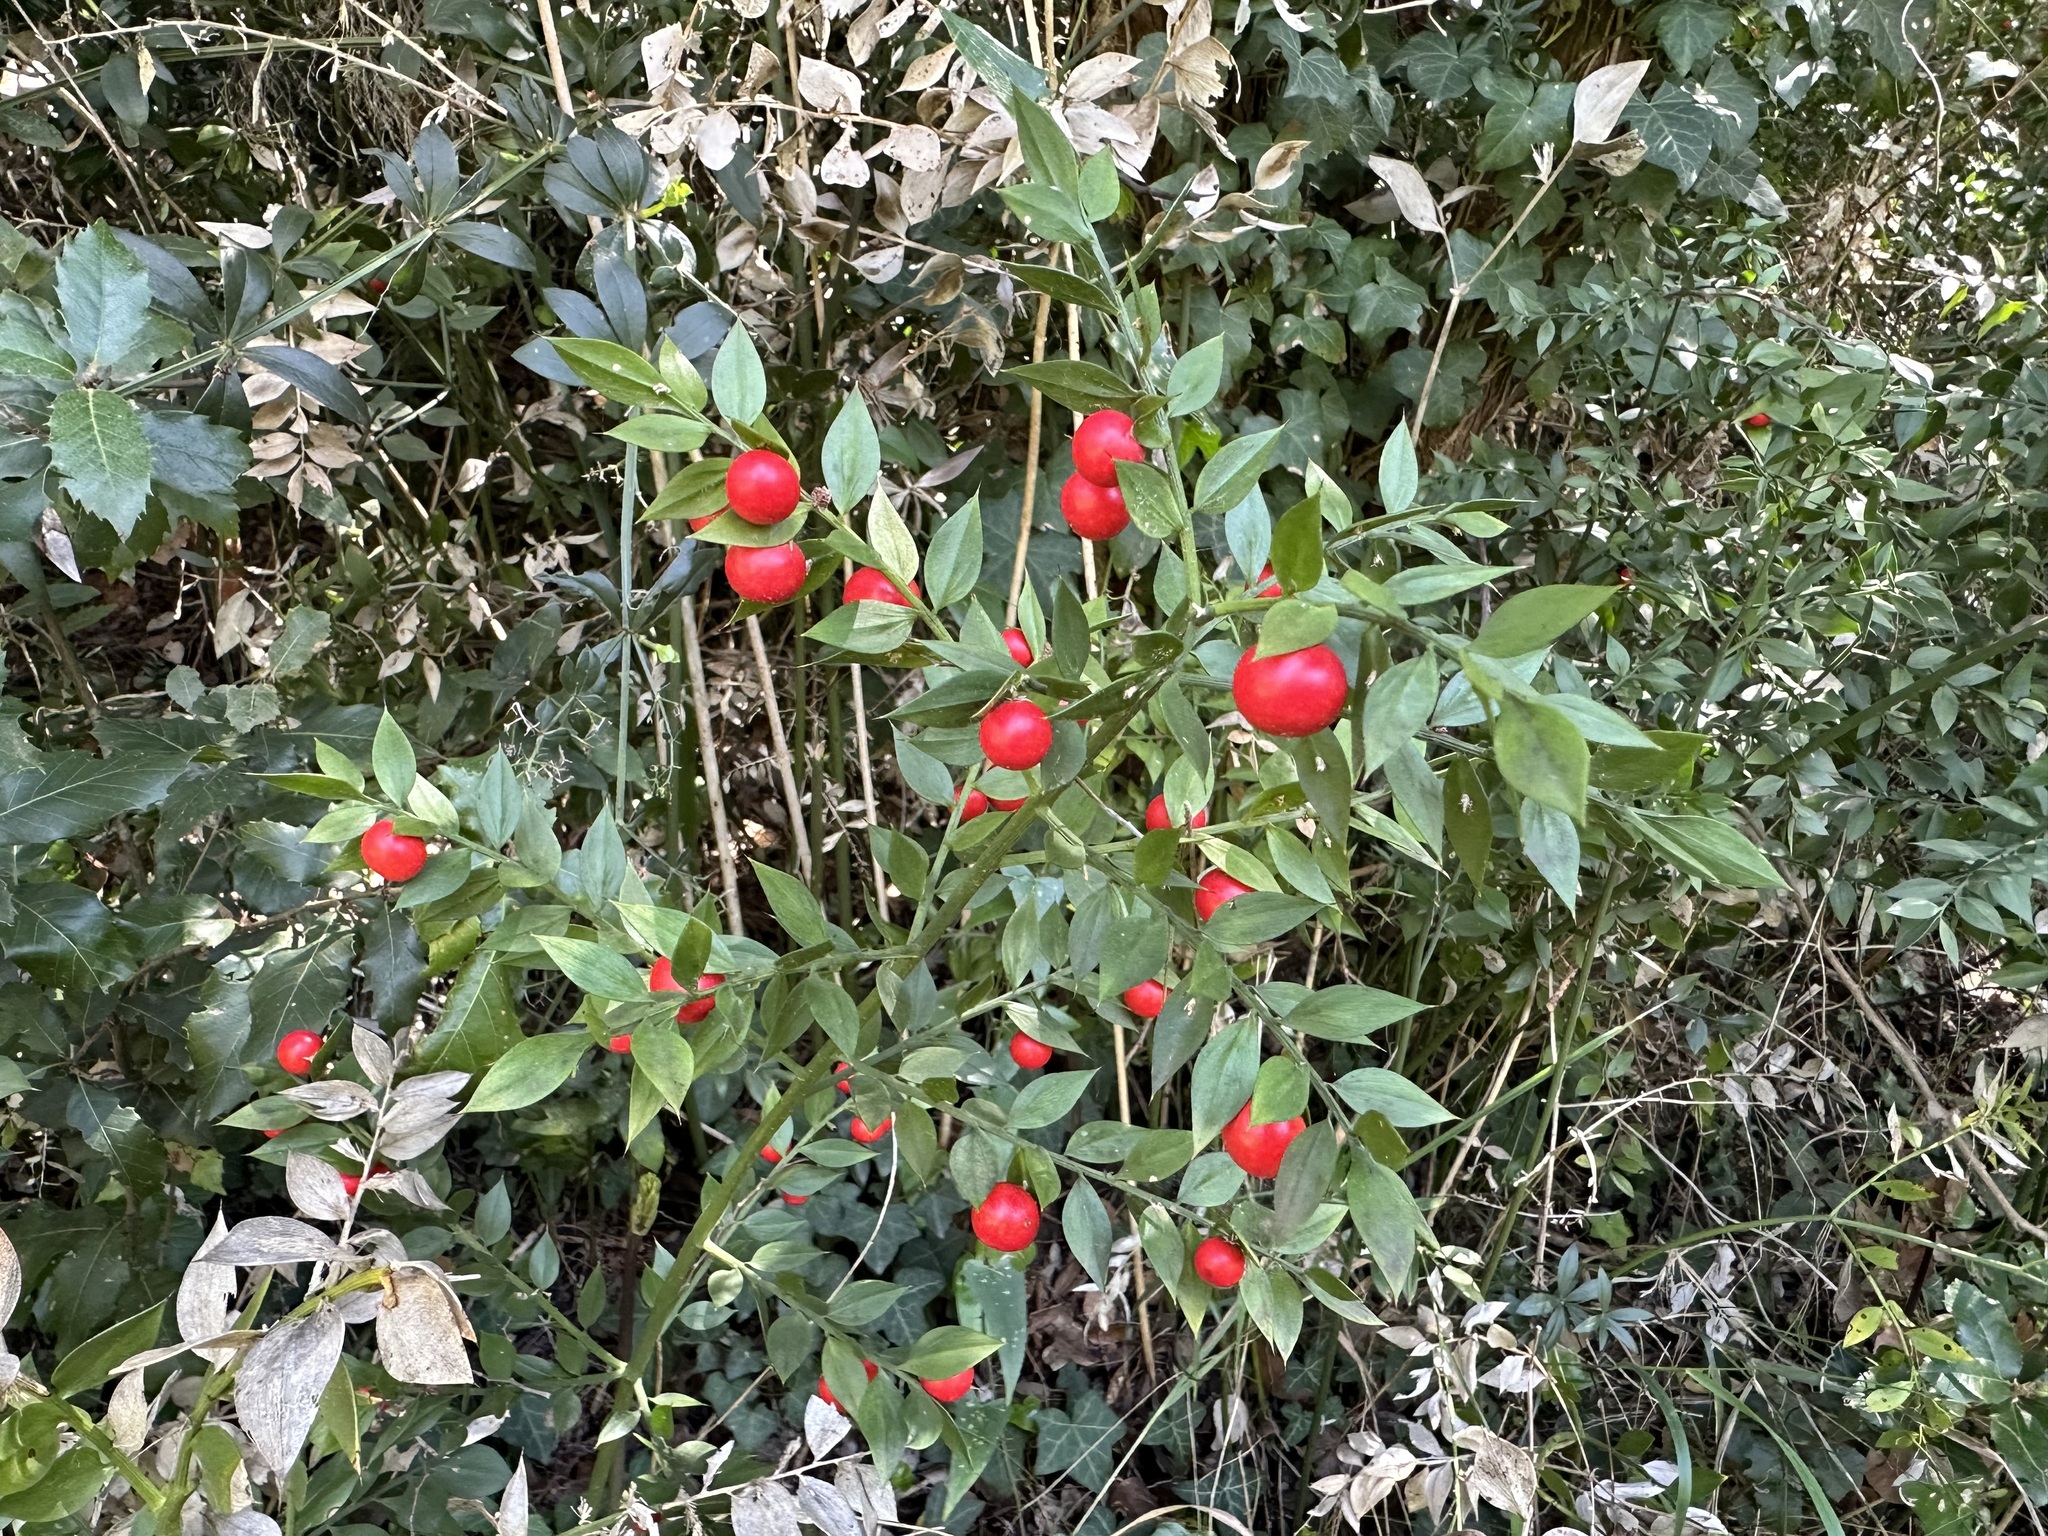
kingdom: Plantae
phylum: Tracheophyta
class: Liliopsida
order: Asparagales
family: Asparagaceae
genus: Ruscus
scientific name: Ruscus aculeatus
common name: Butcher's-broom
